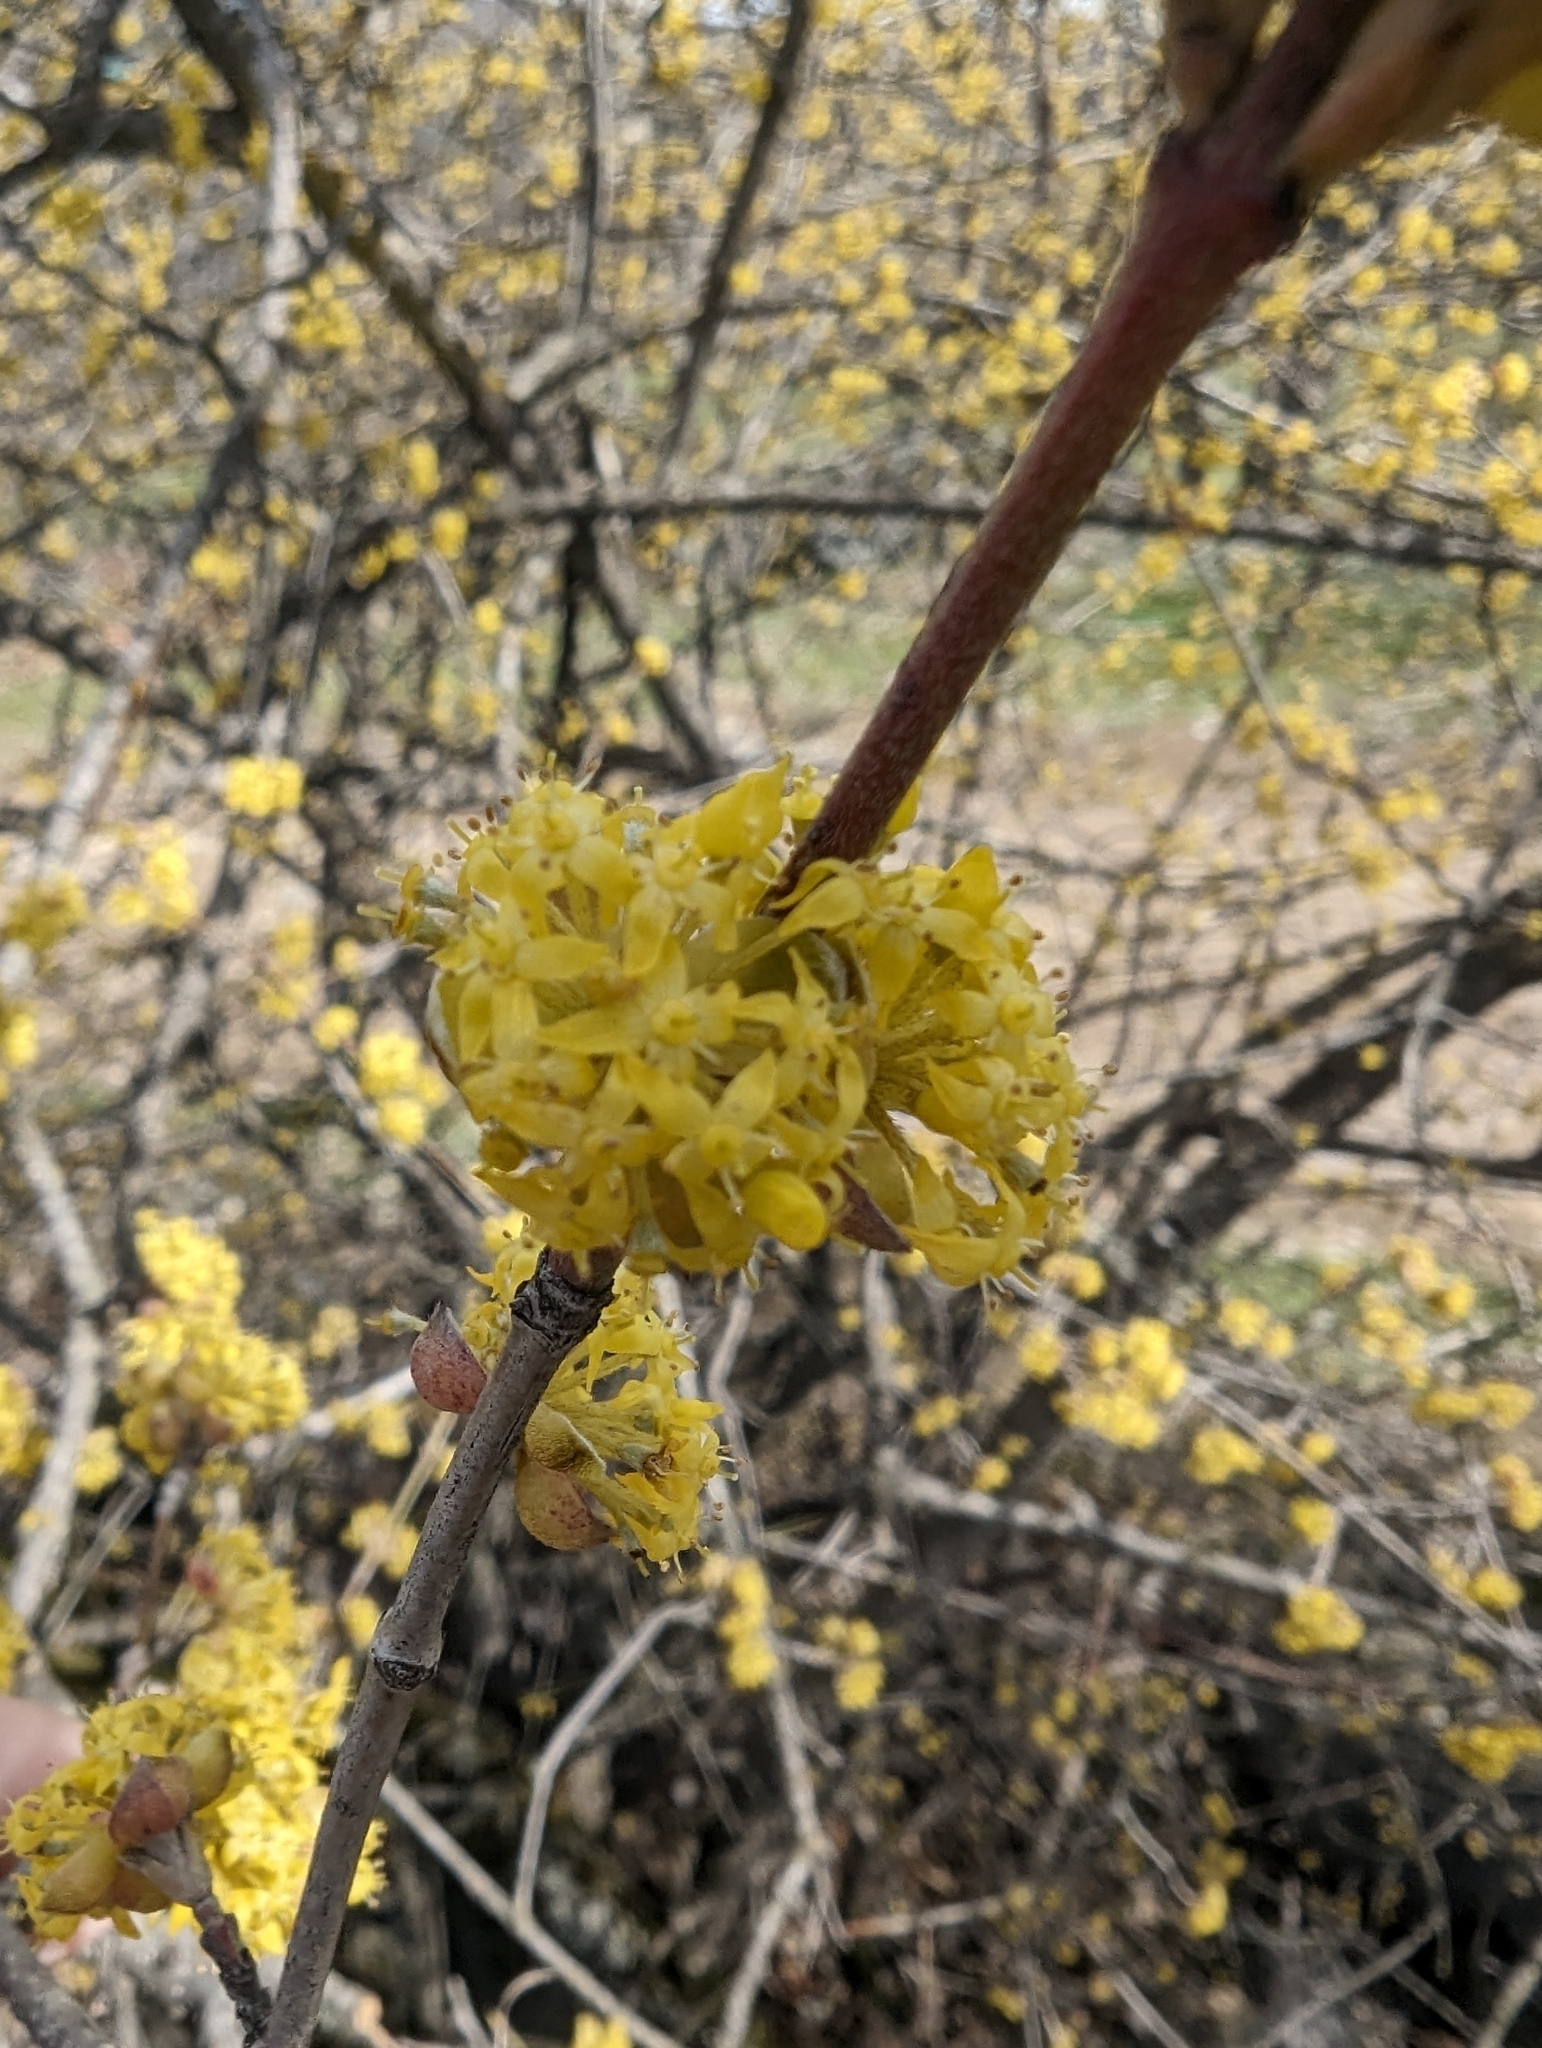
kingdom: Plantae
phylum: Tracheophyta
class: Magnoliopsida
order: Cornales
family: Cornaceae
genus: Cornus
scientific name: Cornus mas
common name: Cornelian-cherry
